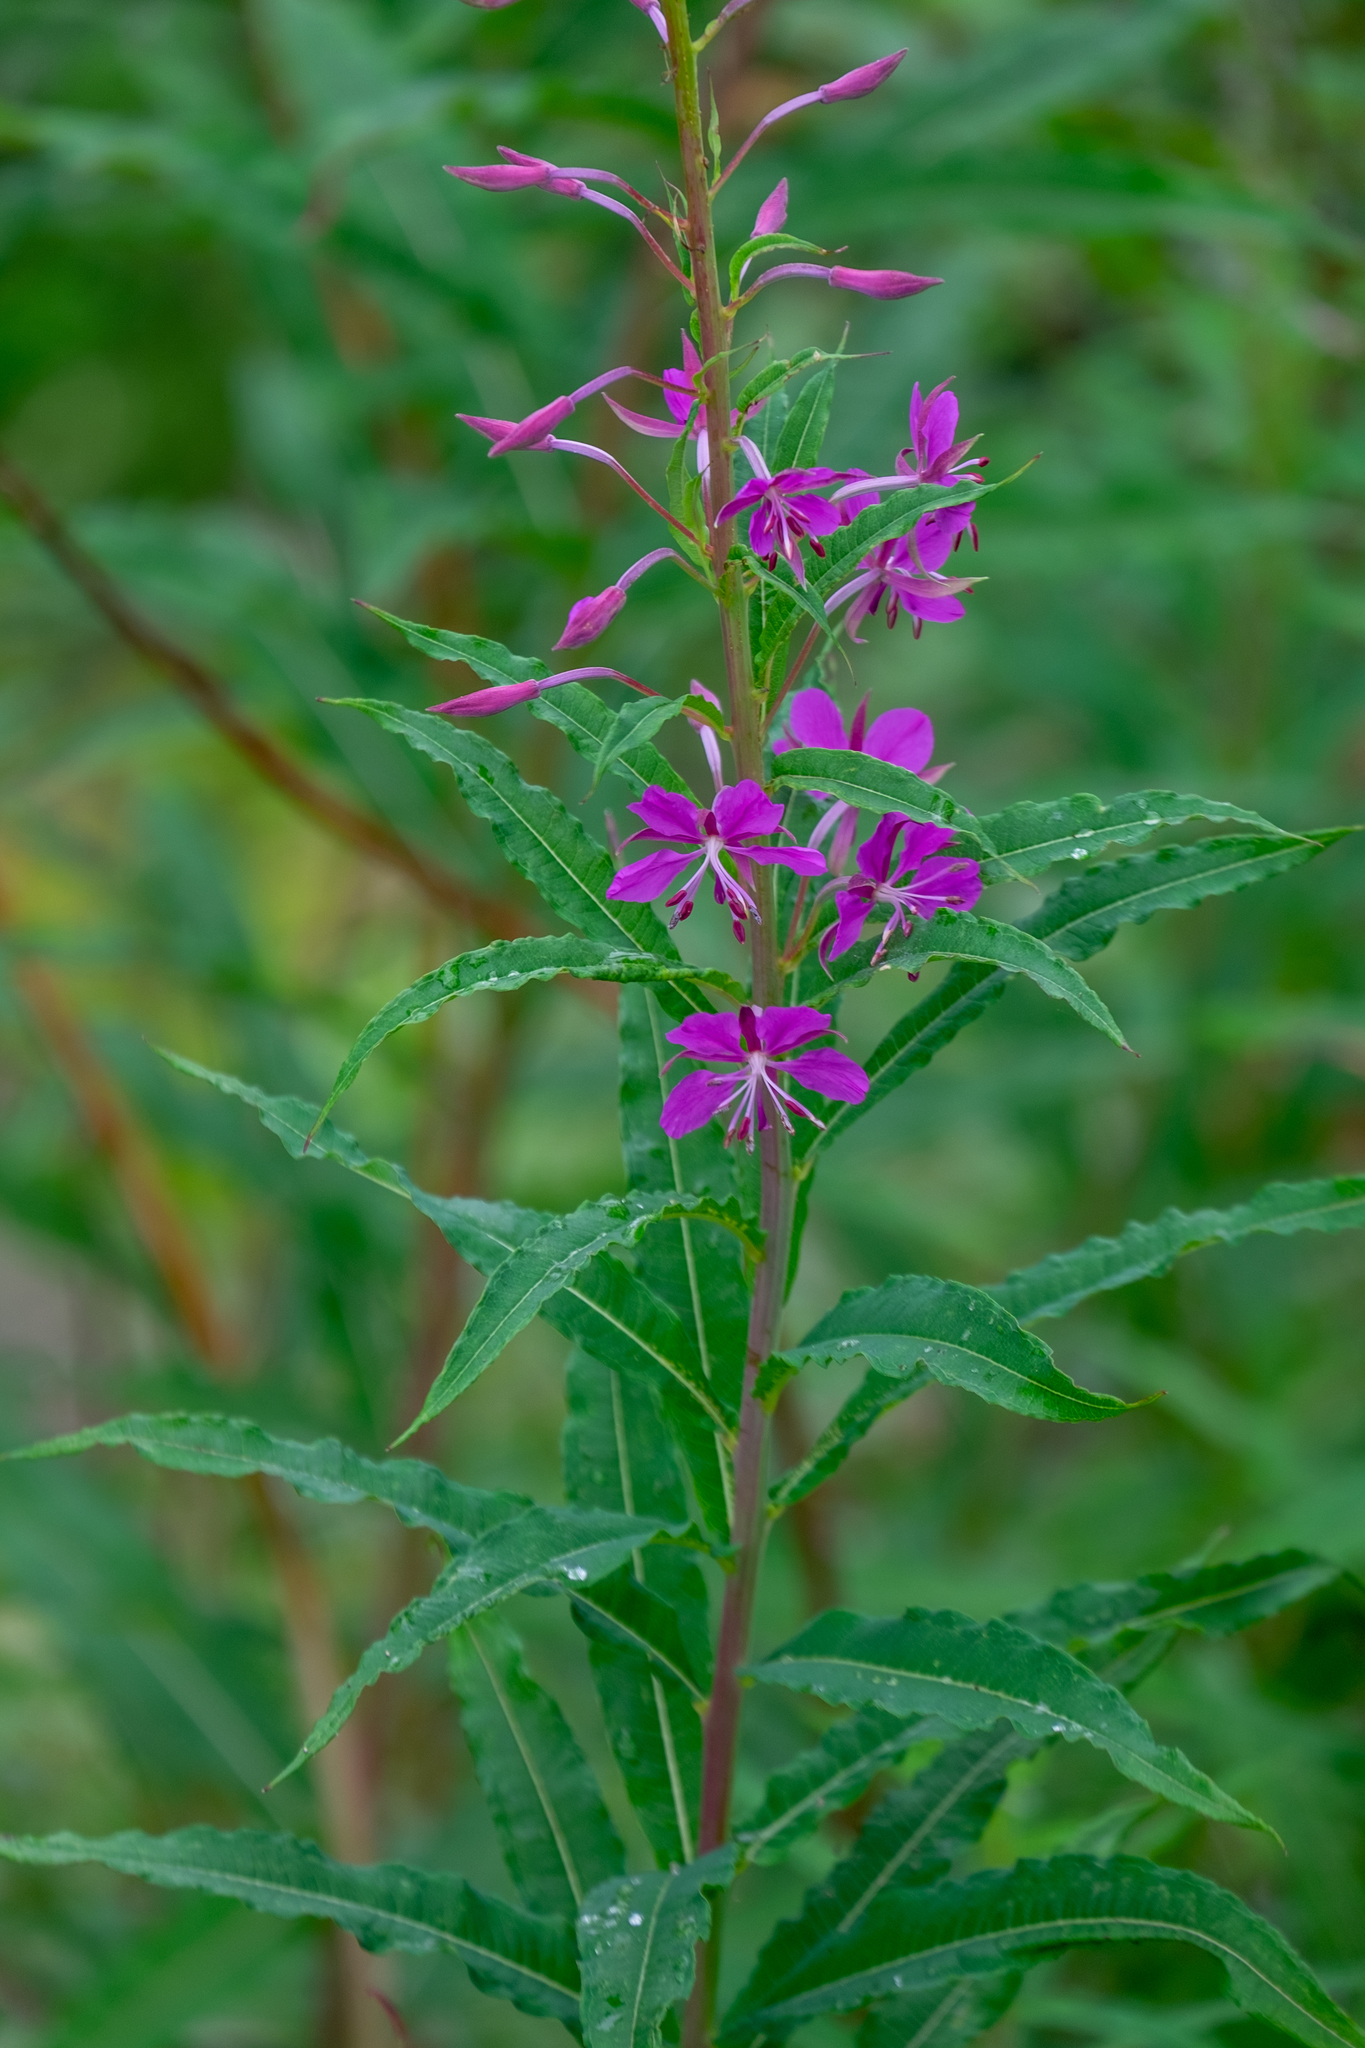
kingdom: Plantae
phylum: Tracheophyta
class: Magnoliopsida
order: Myrtales
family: Onagraceae
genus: Chamaenerion
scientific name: Chamaenerion angustifolium
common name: Fireweed
